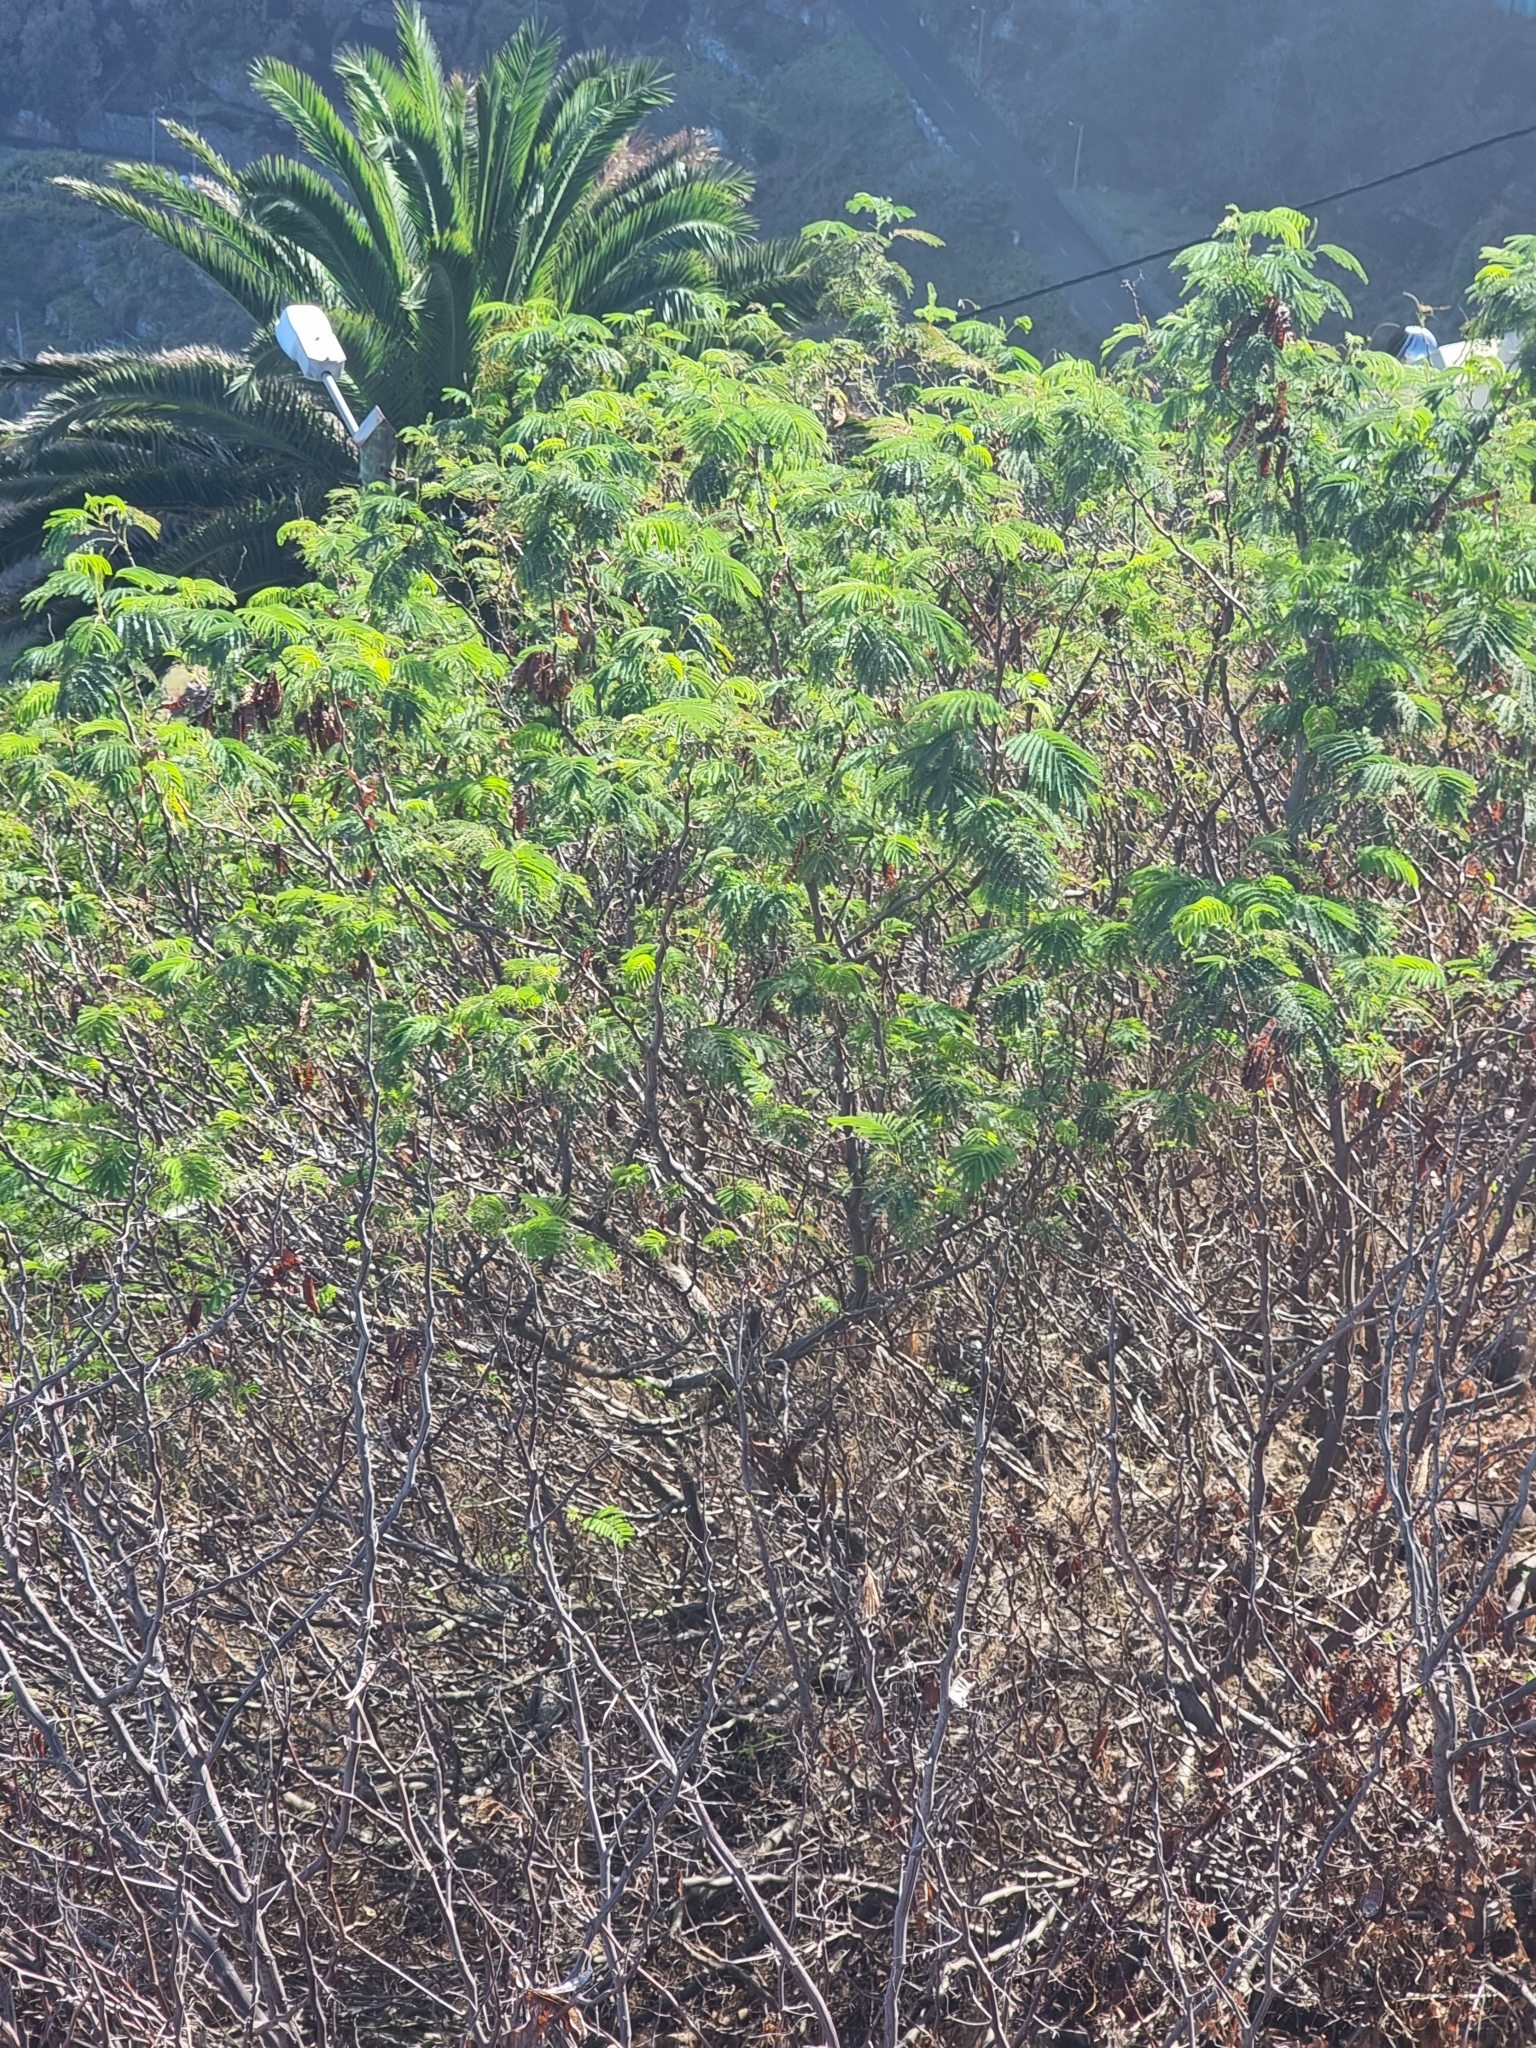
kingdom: Plantae
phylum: Tracheophyta
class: Magnoliopsida
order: Fabales
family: Fabaceae
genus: Paraserianthes
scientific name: Paraserianthes lophantha
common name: Plume albizia
